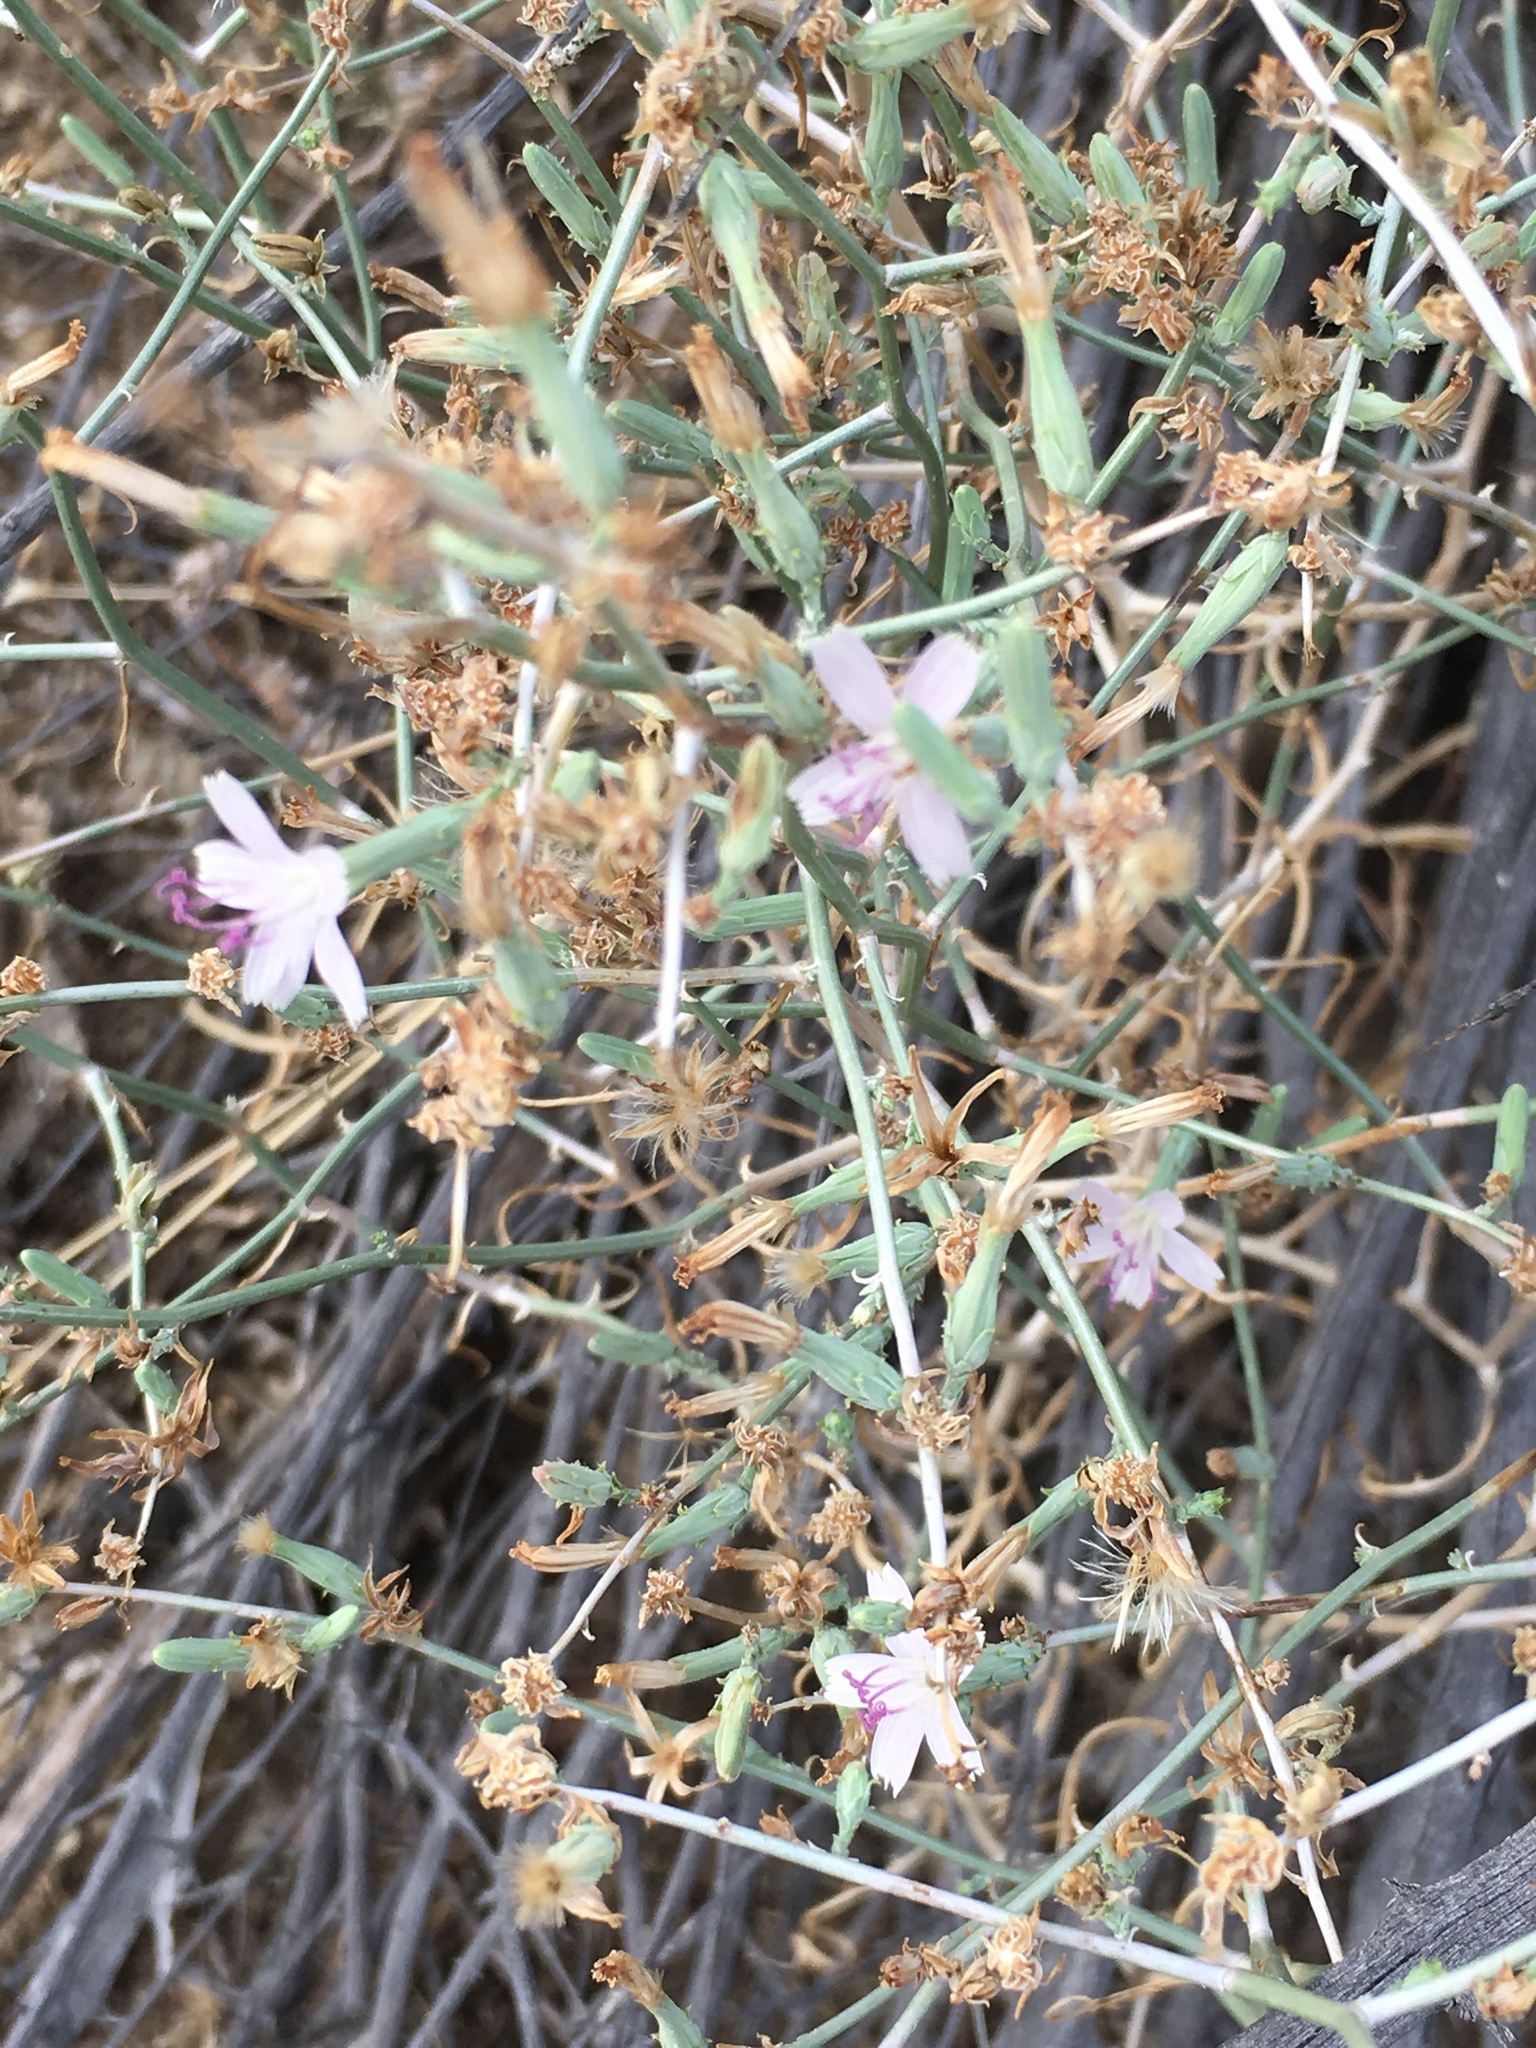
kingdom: Plantae
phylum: Tracheophyta
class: Magnoliopsida
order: Asterales
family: Asteraceae
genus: Stephanomeria
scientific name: Stephanomeria pauciflora
